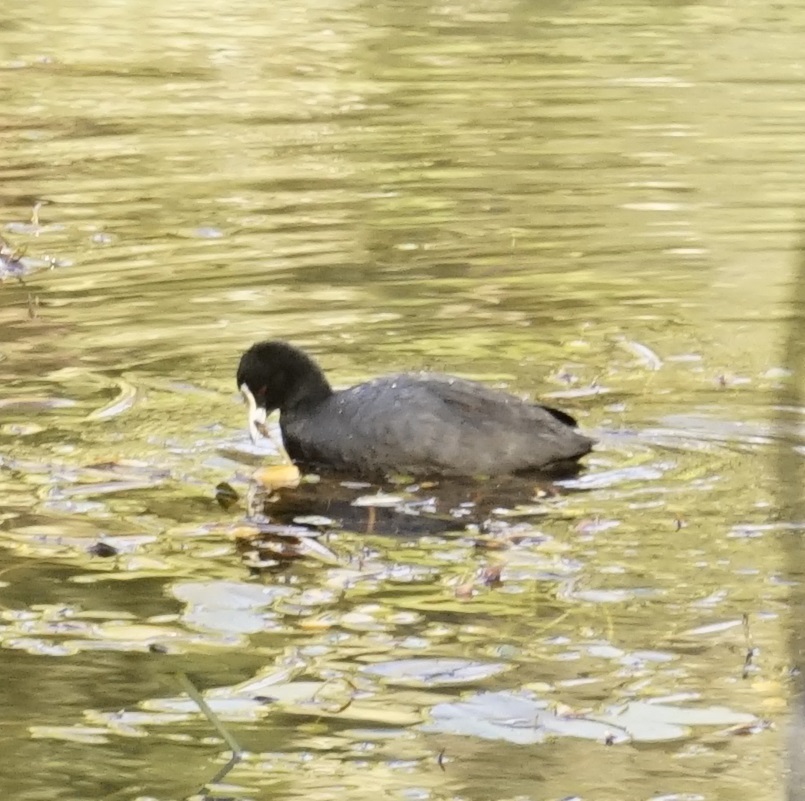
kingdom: Animalia
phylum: Chordata
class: Aves
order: Gruiformes
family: Rallidae
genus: Fulica
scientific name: Fulica atra
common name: Eurasian coot
